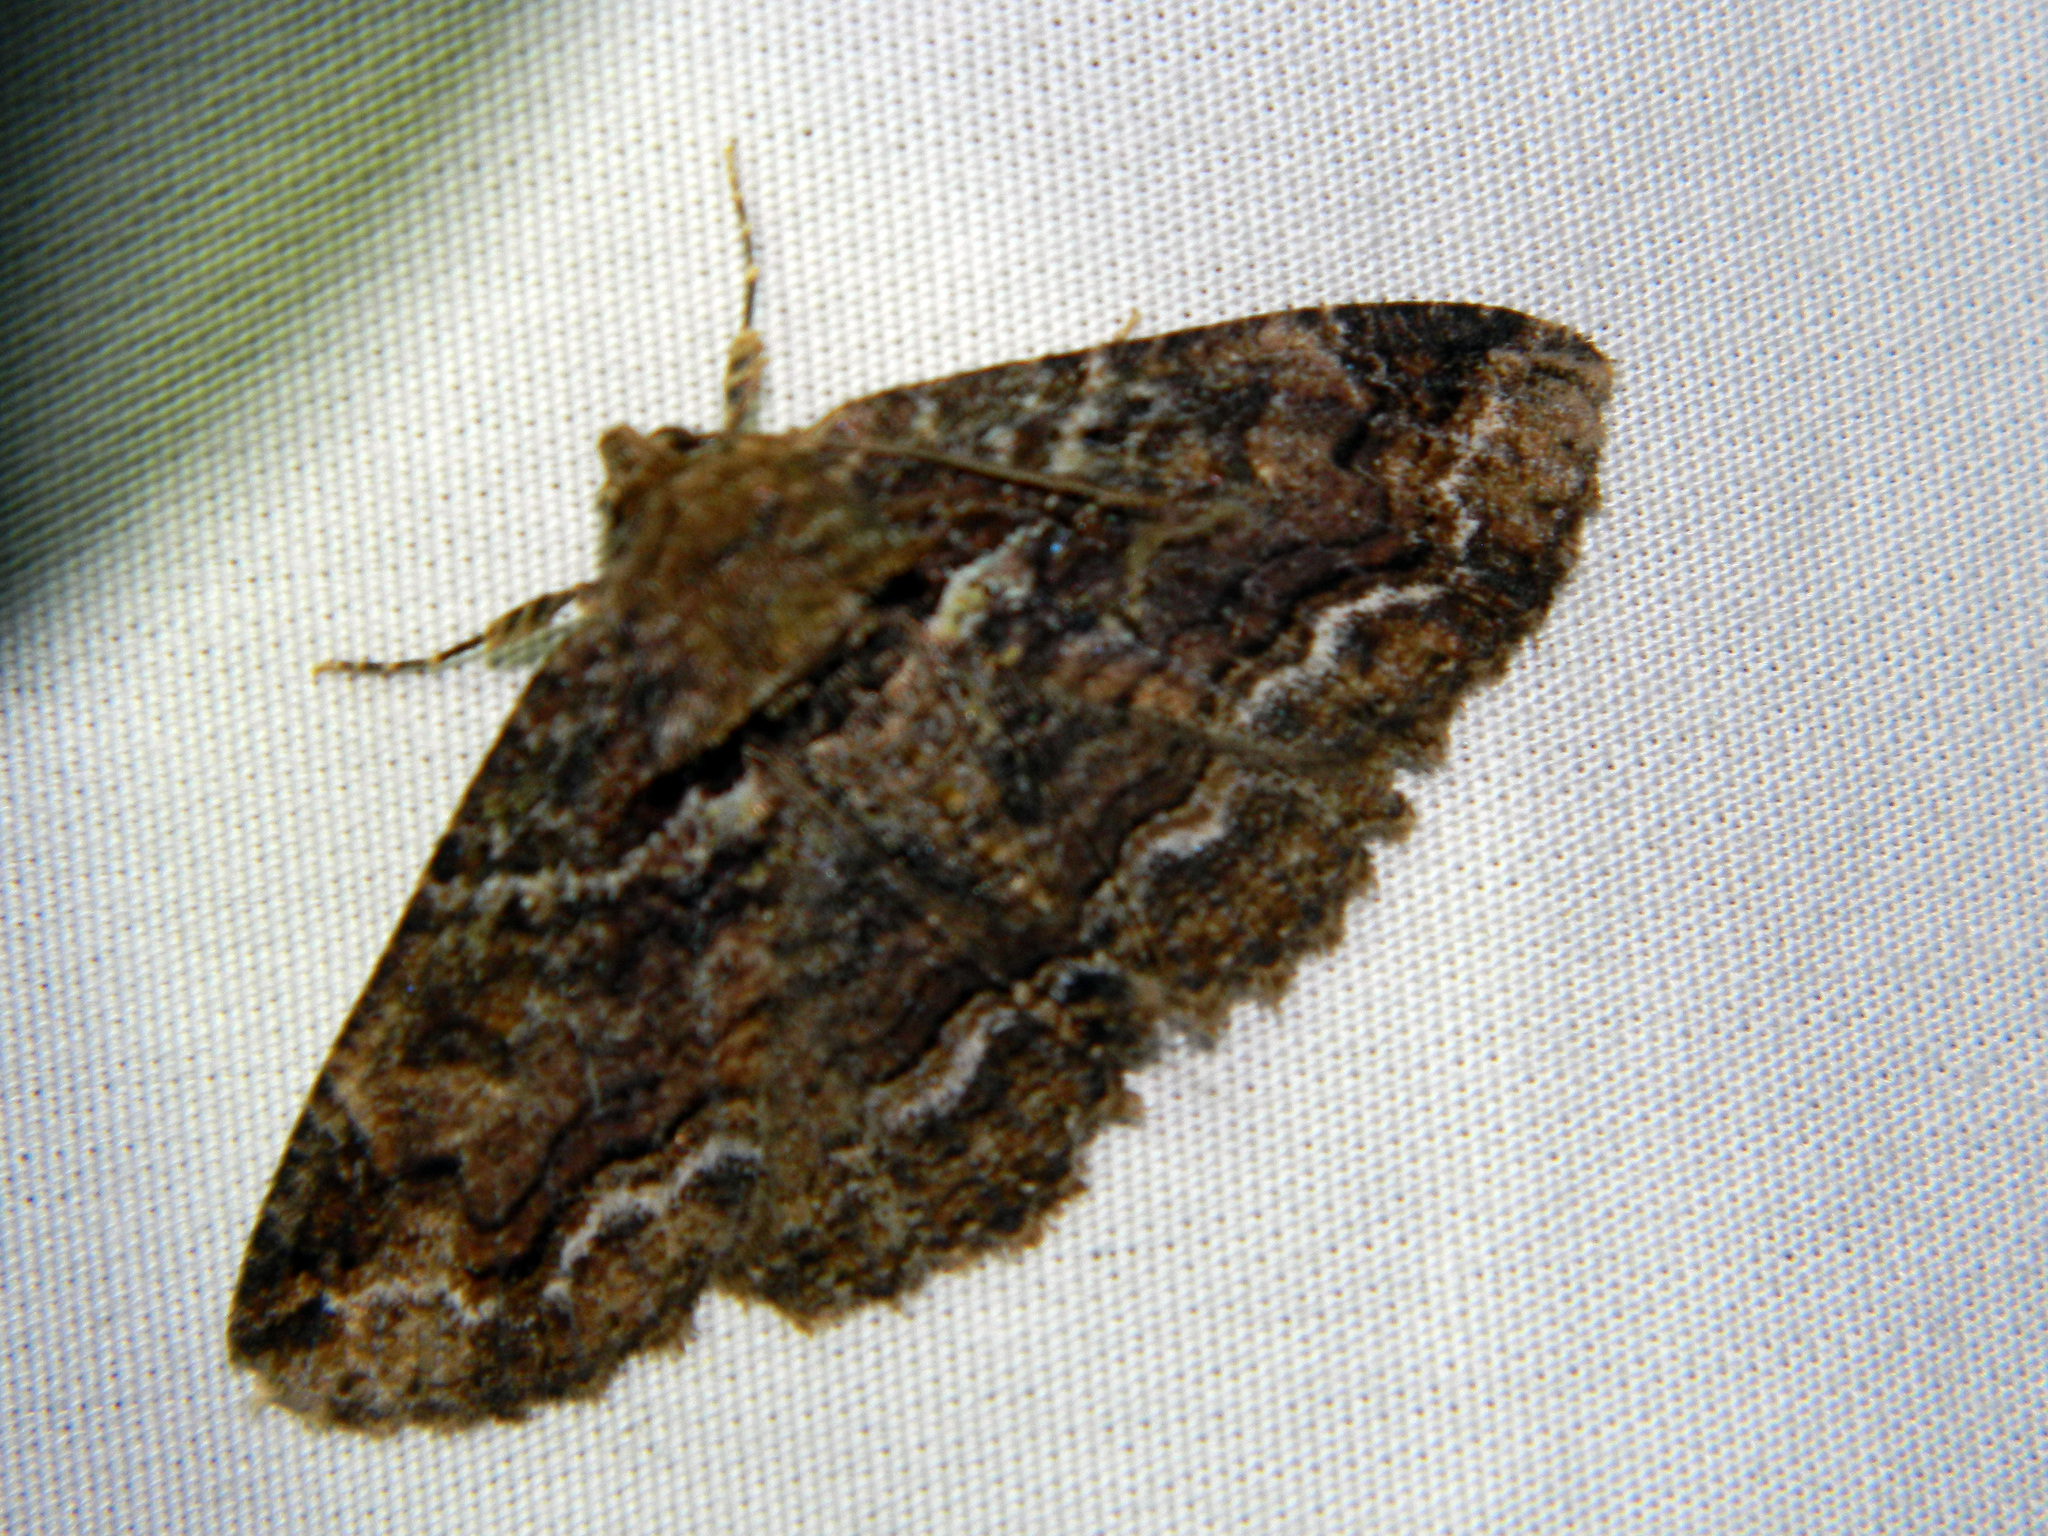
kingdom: Animalia
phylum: Arthropoda
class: Insecta
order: Lepidoptera
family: Erebidae
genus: Zale
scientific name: Zale minerea
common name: Colorful zale moth
